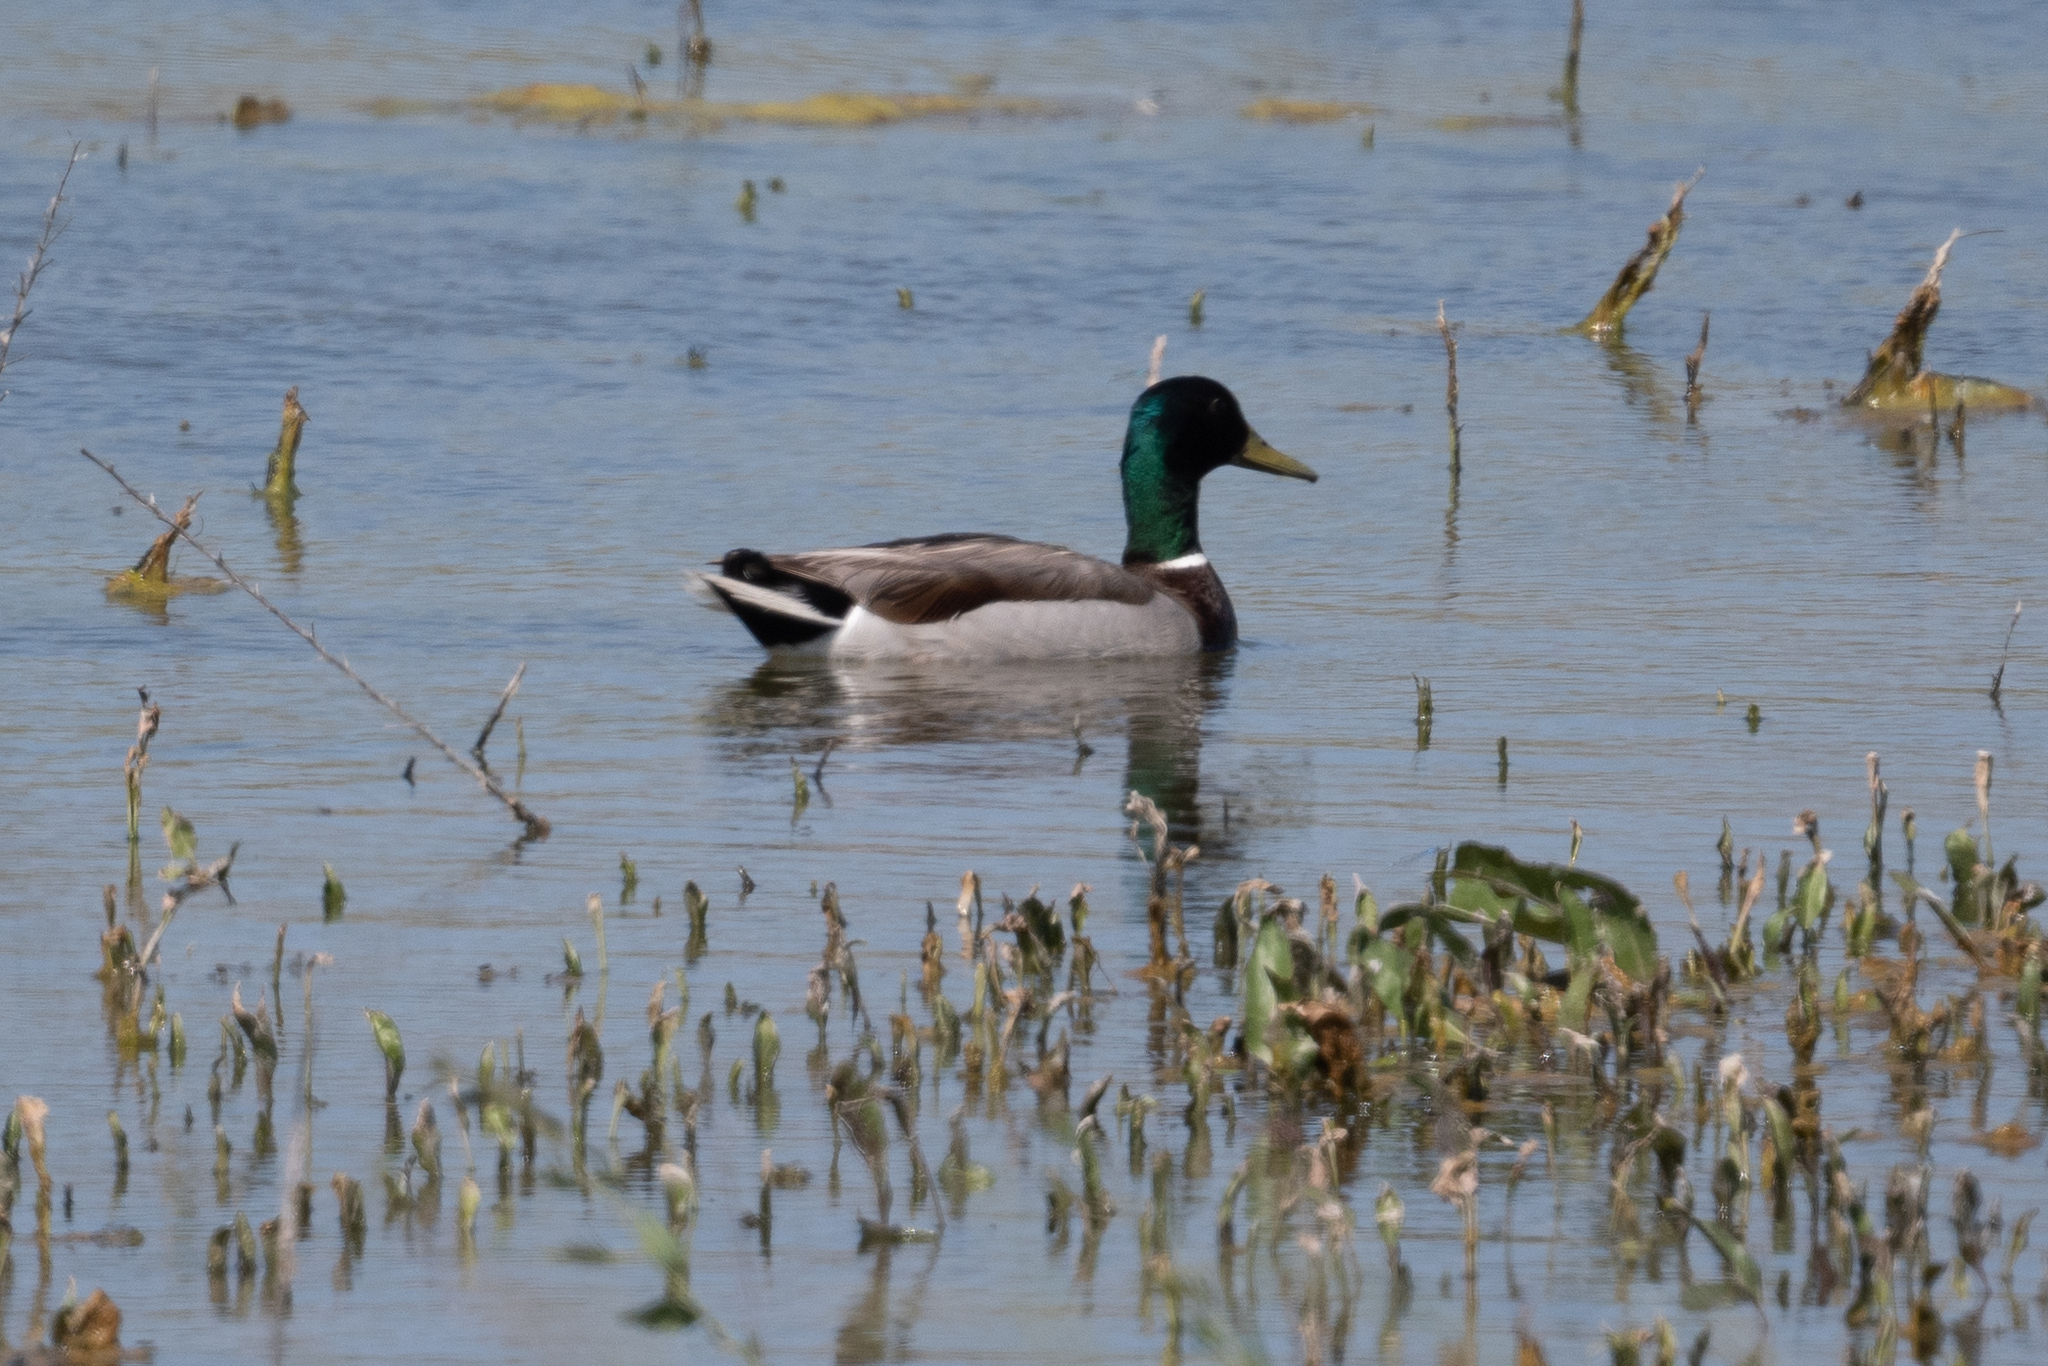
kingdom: Animalia
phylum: Chordata
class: Aves
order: Anseriformes
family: Anatidae
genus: Anas
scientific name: Anas platyrhynchos
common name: Mallard
